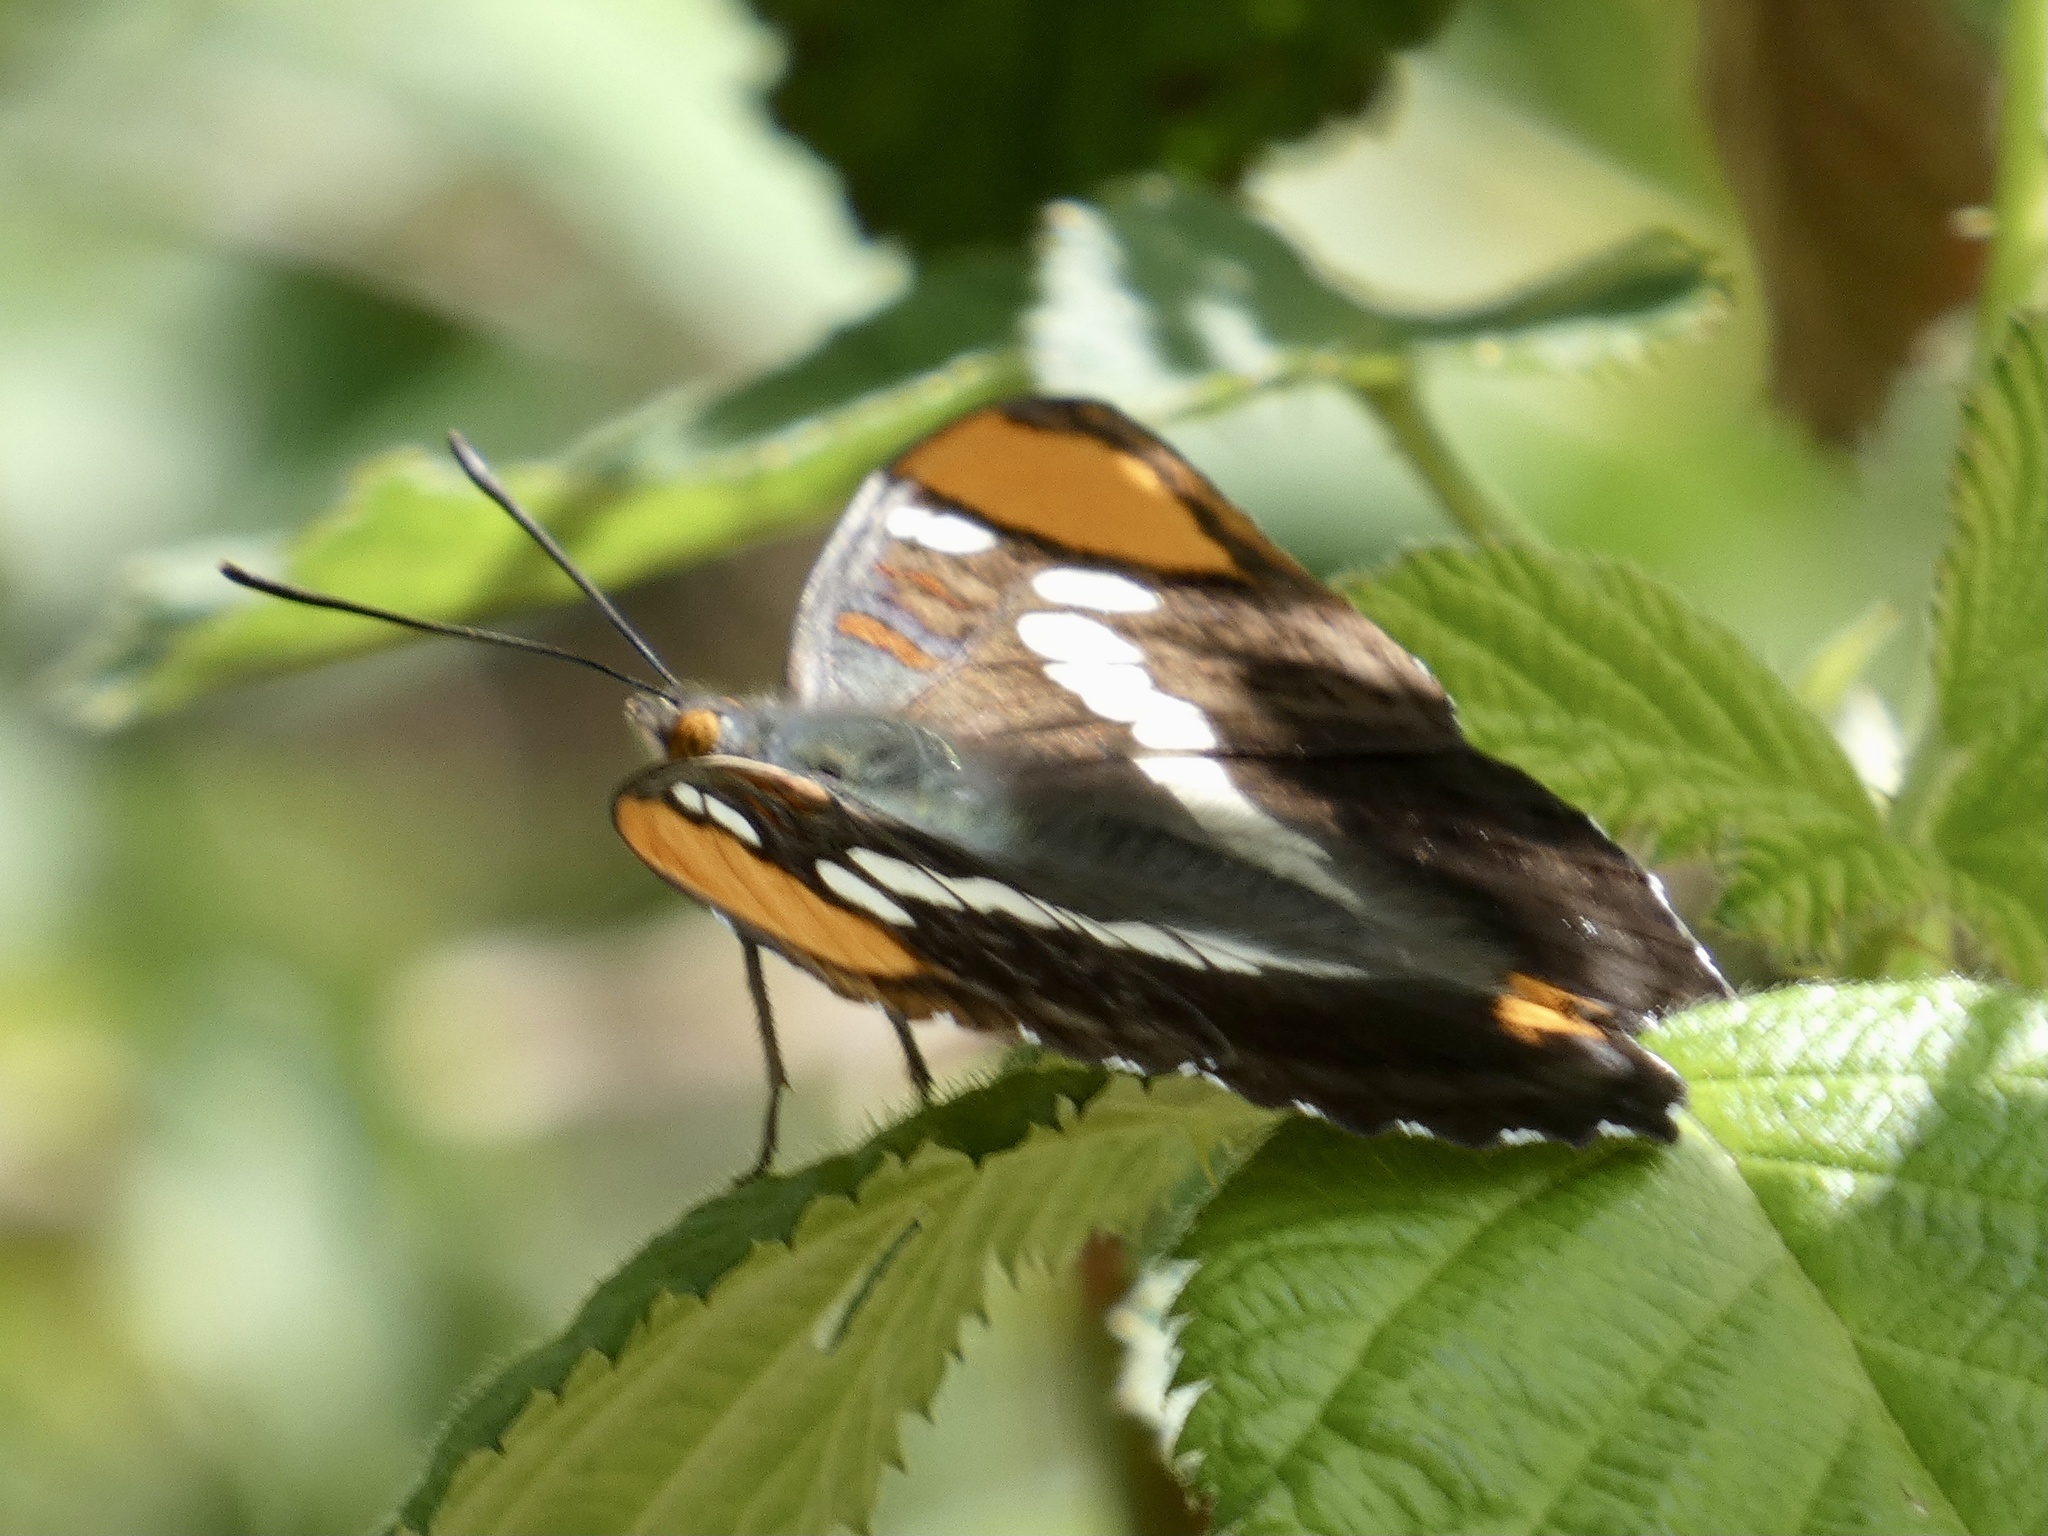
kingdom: Animalia
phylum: Arthropoda
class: Insecta
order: Lepidoptera
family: Nymphalidae
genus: Limenitis
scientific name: Limenitis bredowii
